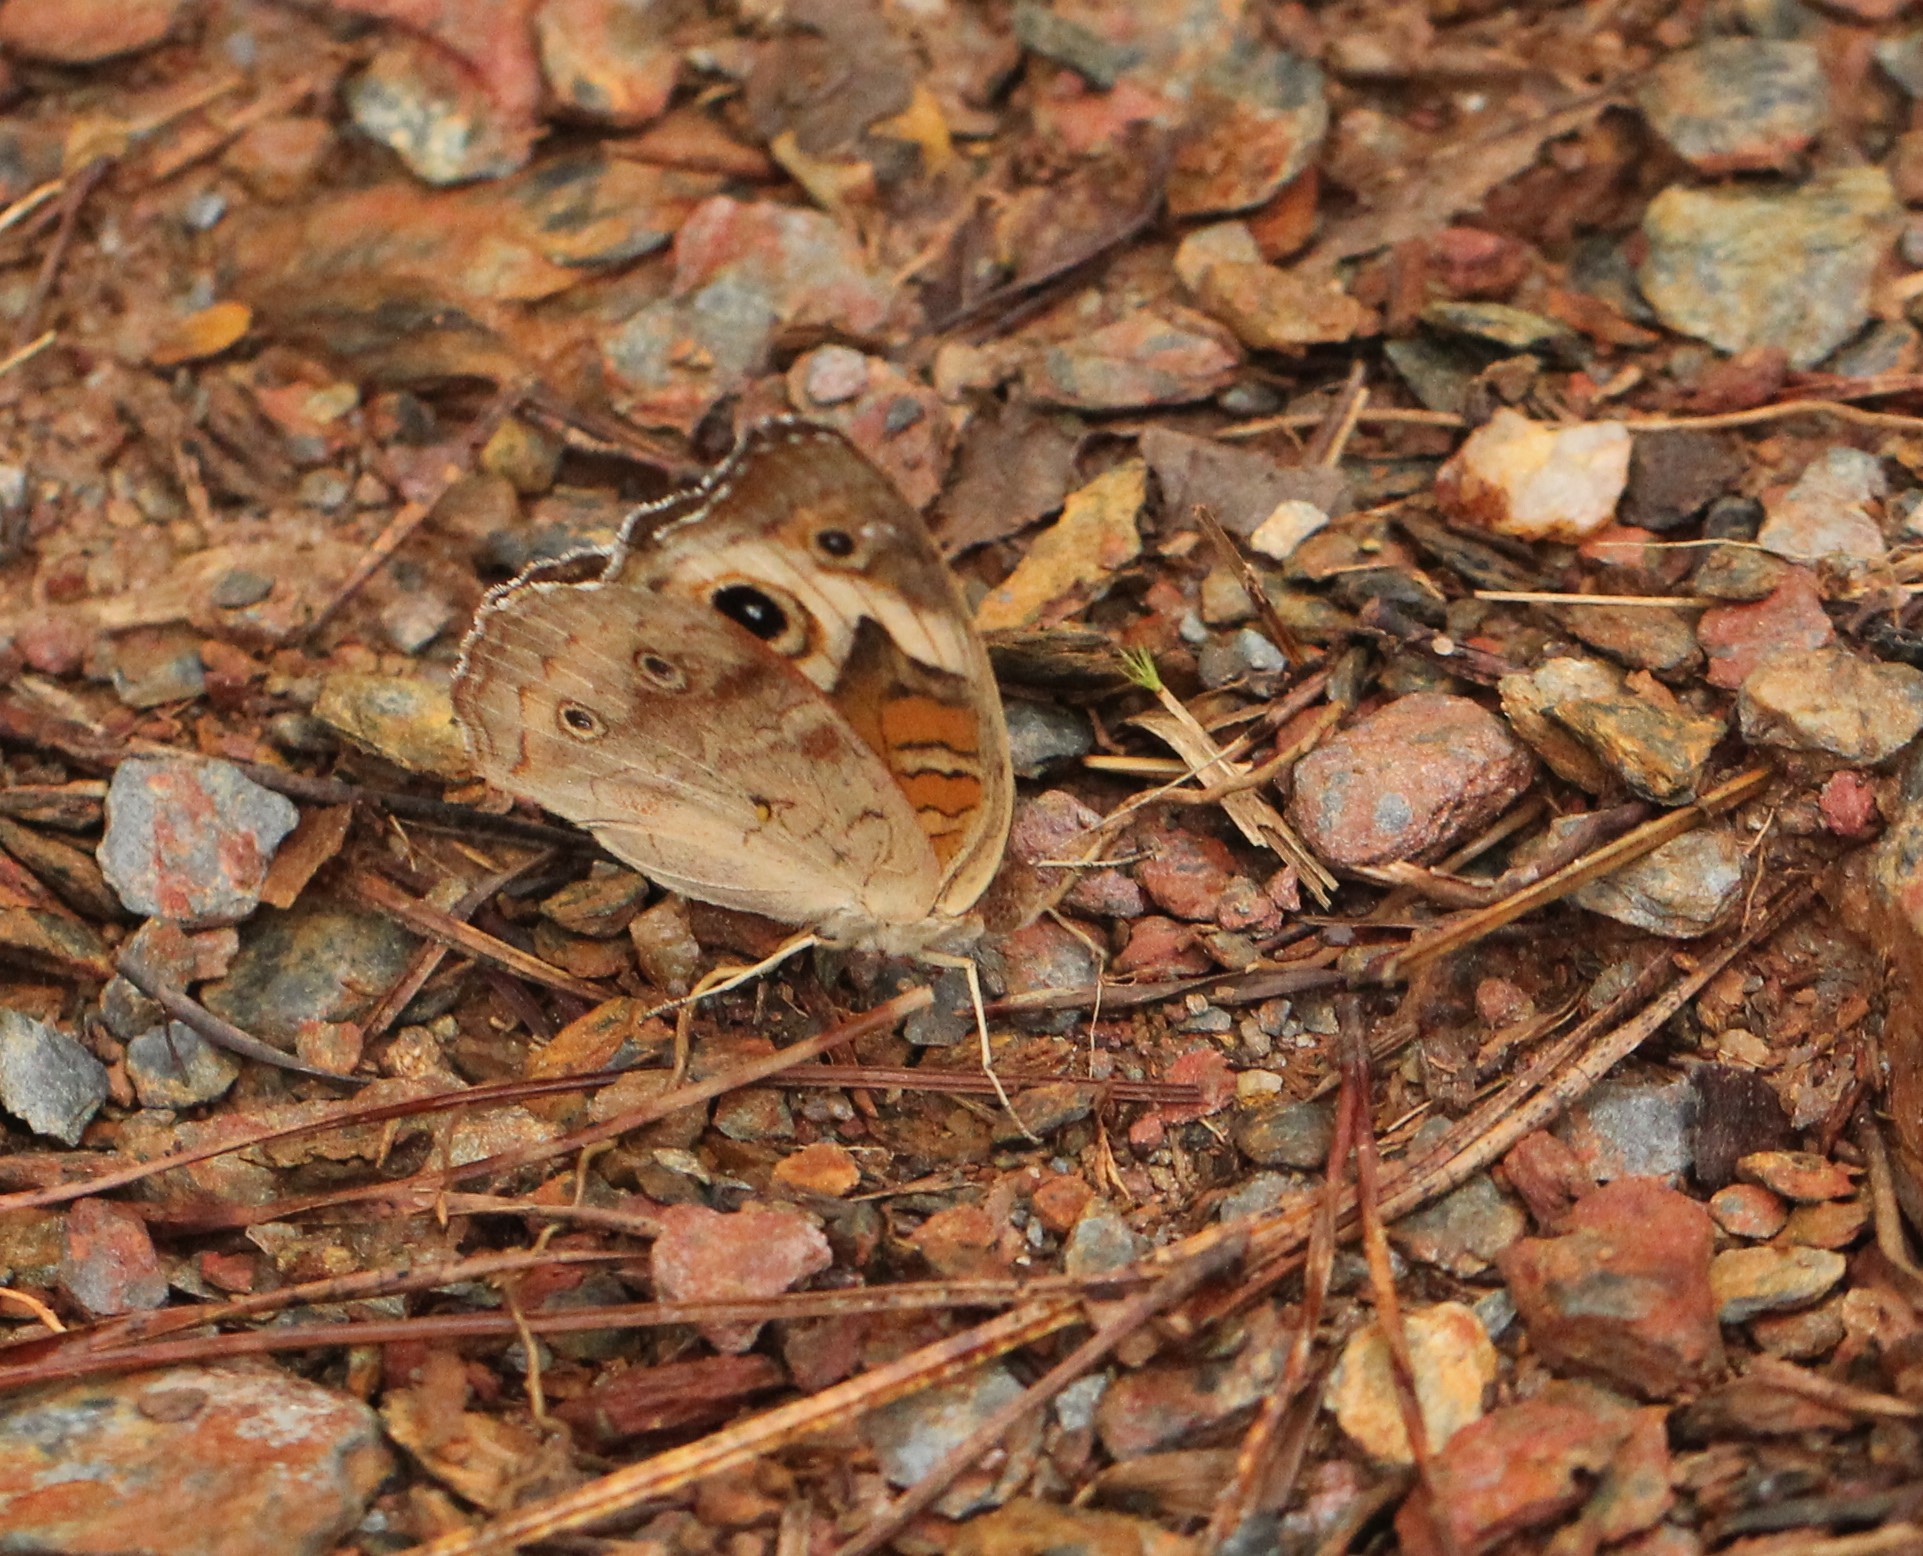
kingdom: Animalia
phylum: Arthropoda
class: Insecta
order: Lepidoptera
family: Nymphalidae
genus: Junonia
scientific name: Junonia coenia
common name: Common buckeye
